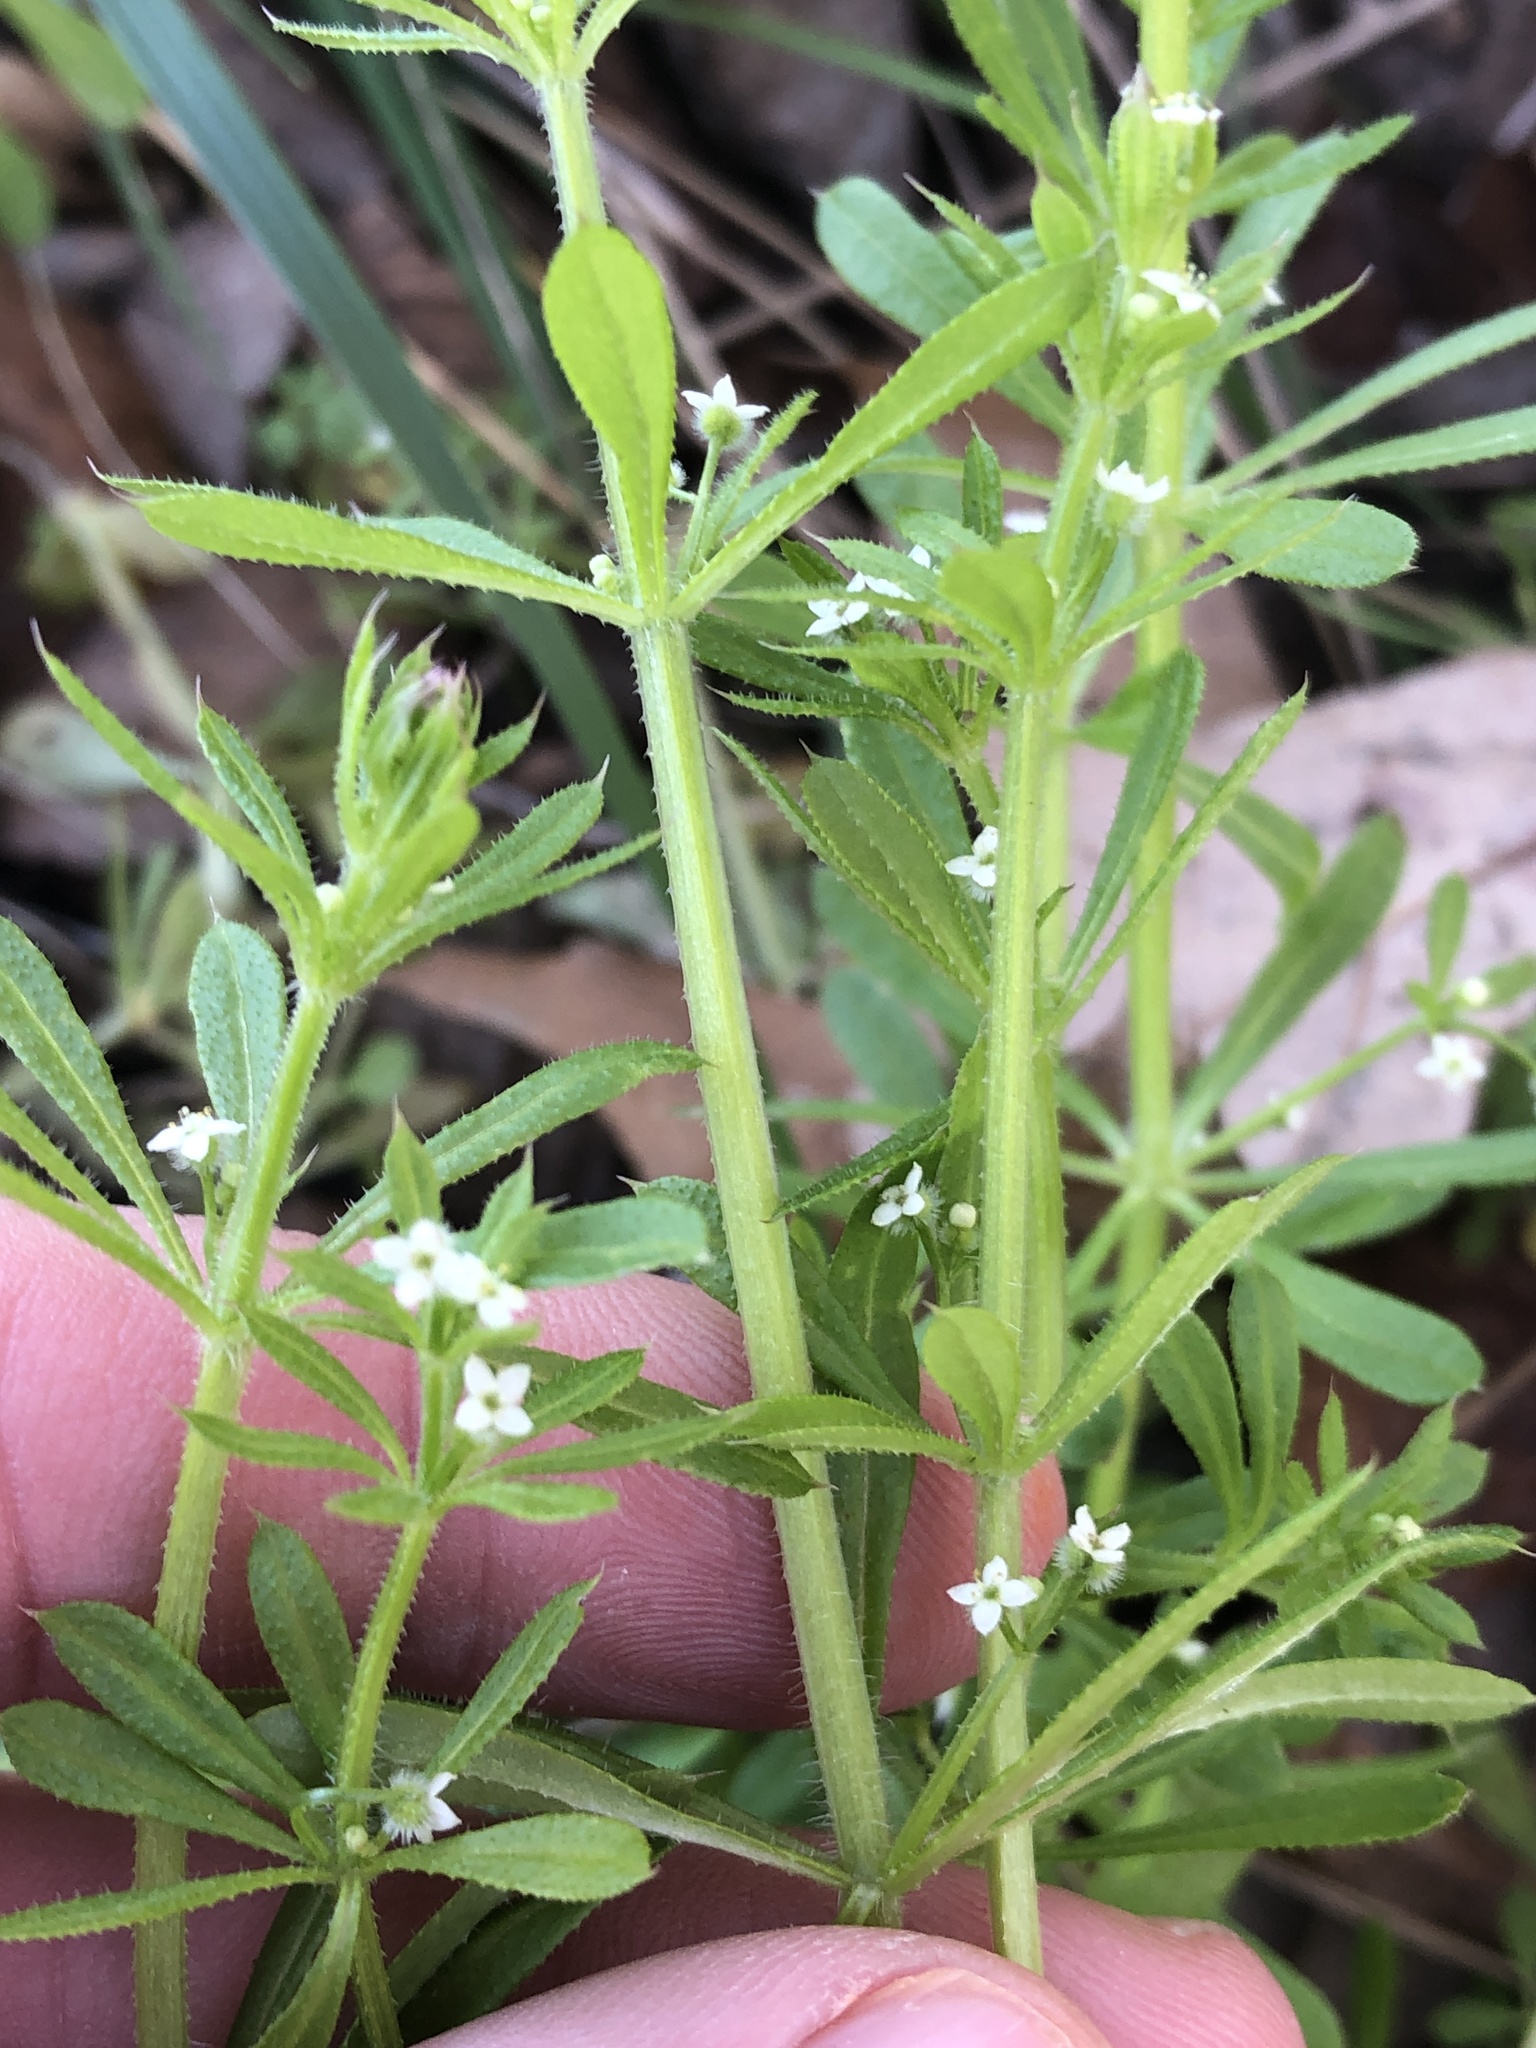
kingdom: Plantae
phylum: Tracheophyta
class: Magnoliopsida
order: Gentianales
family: Rubiaceae
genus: Galium
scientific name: Galium aparine
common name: Cleavers
